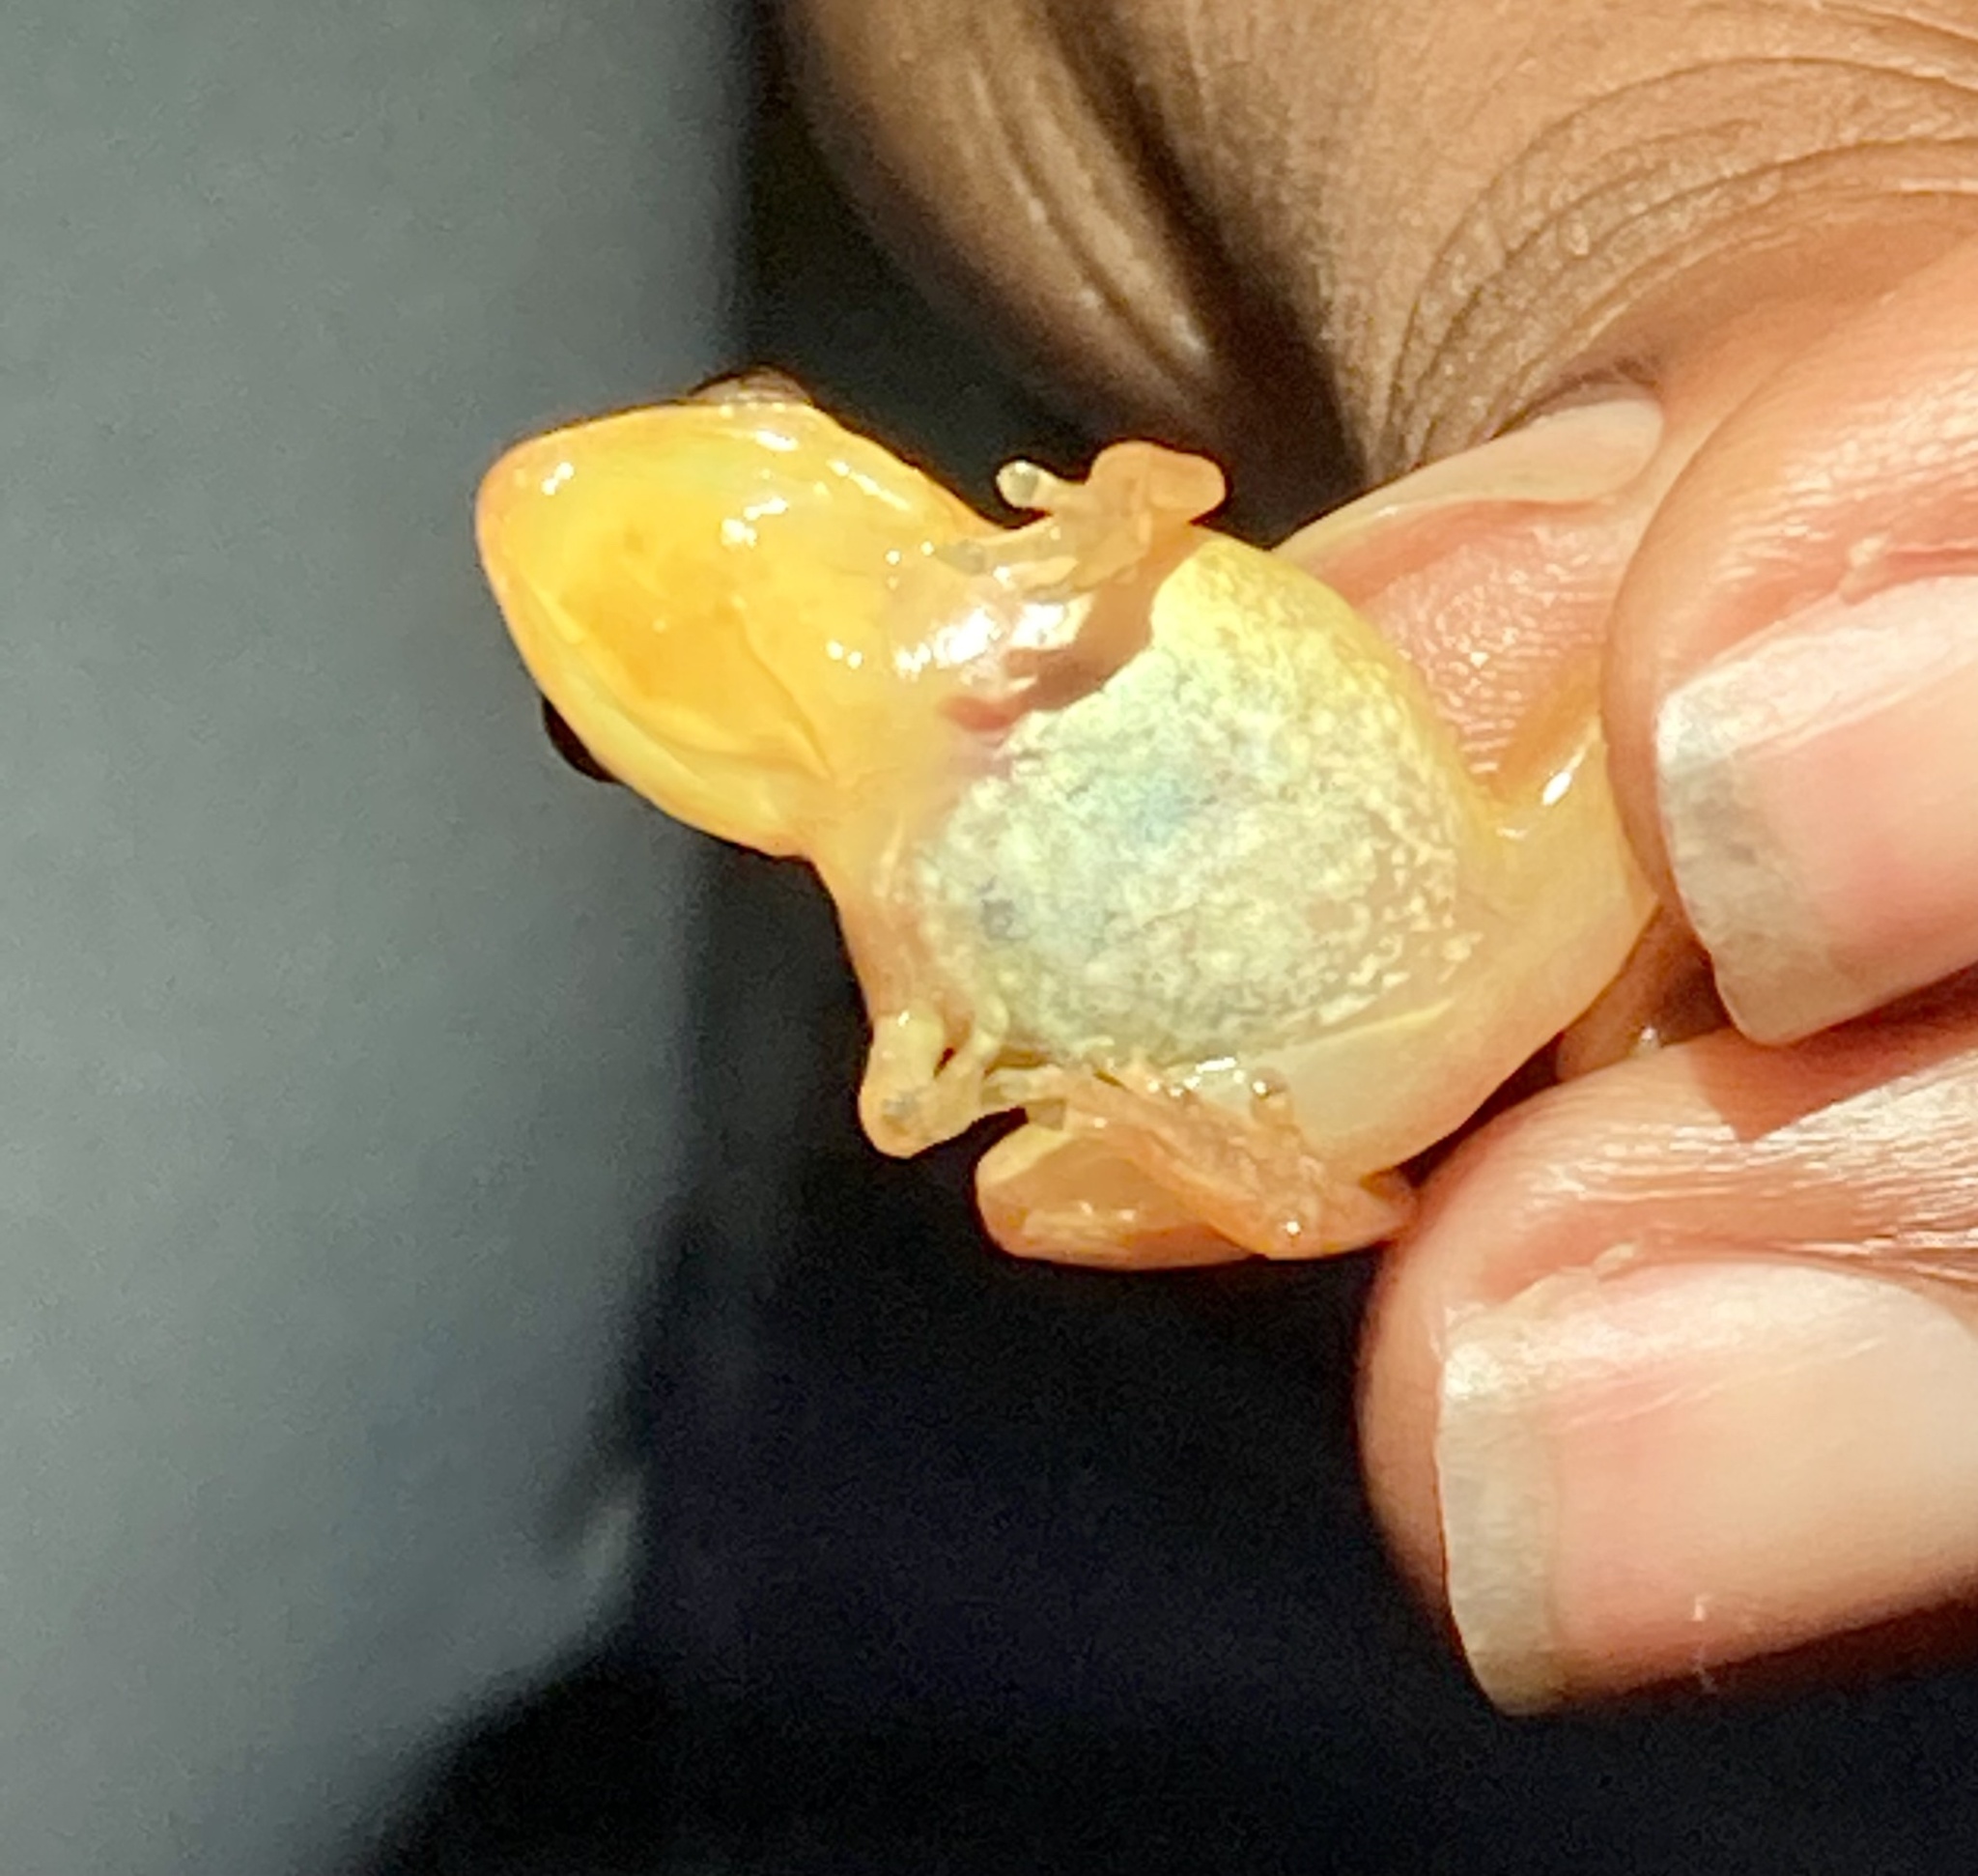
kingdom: Animalia
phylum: Chordata
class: Amphibia
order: Anura
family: Eleutherodactylidae
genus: Diasporus
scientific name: Diasporus gularis
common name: Esmeraldas robber frog
